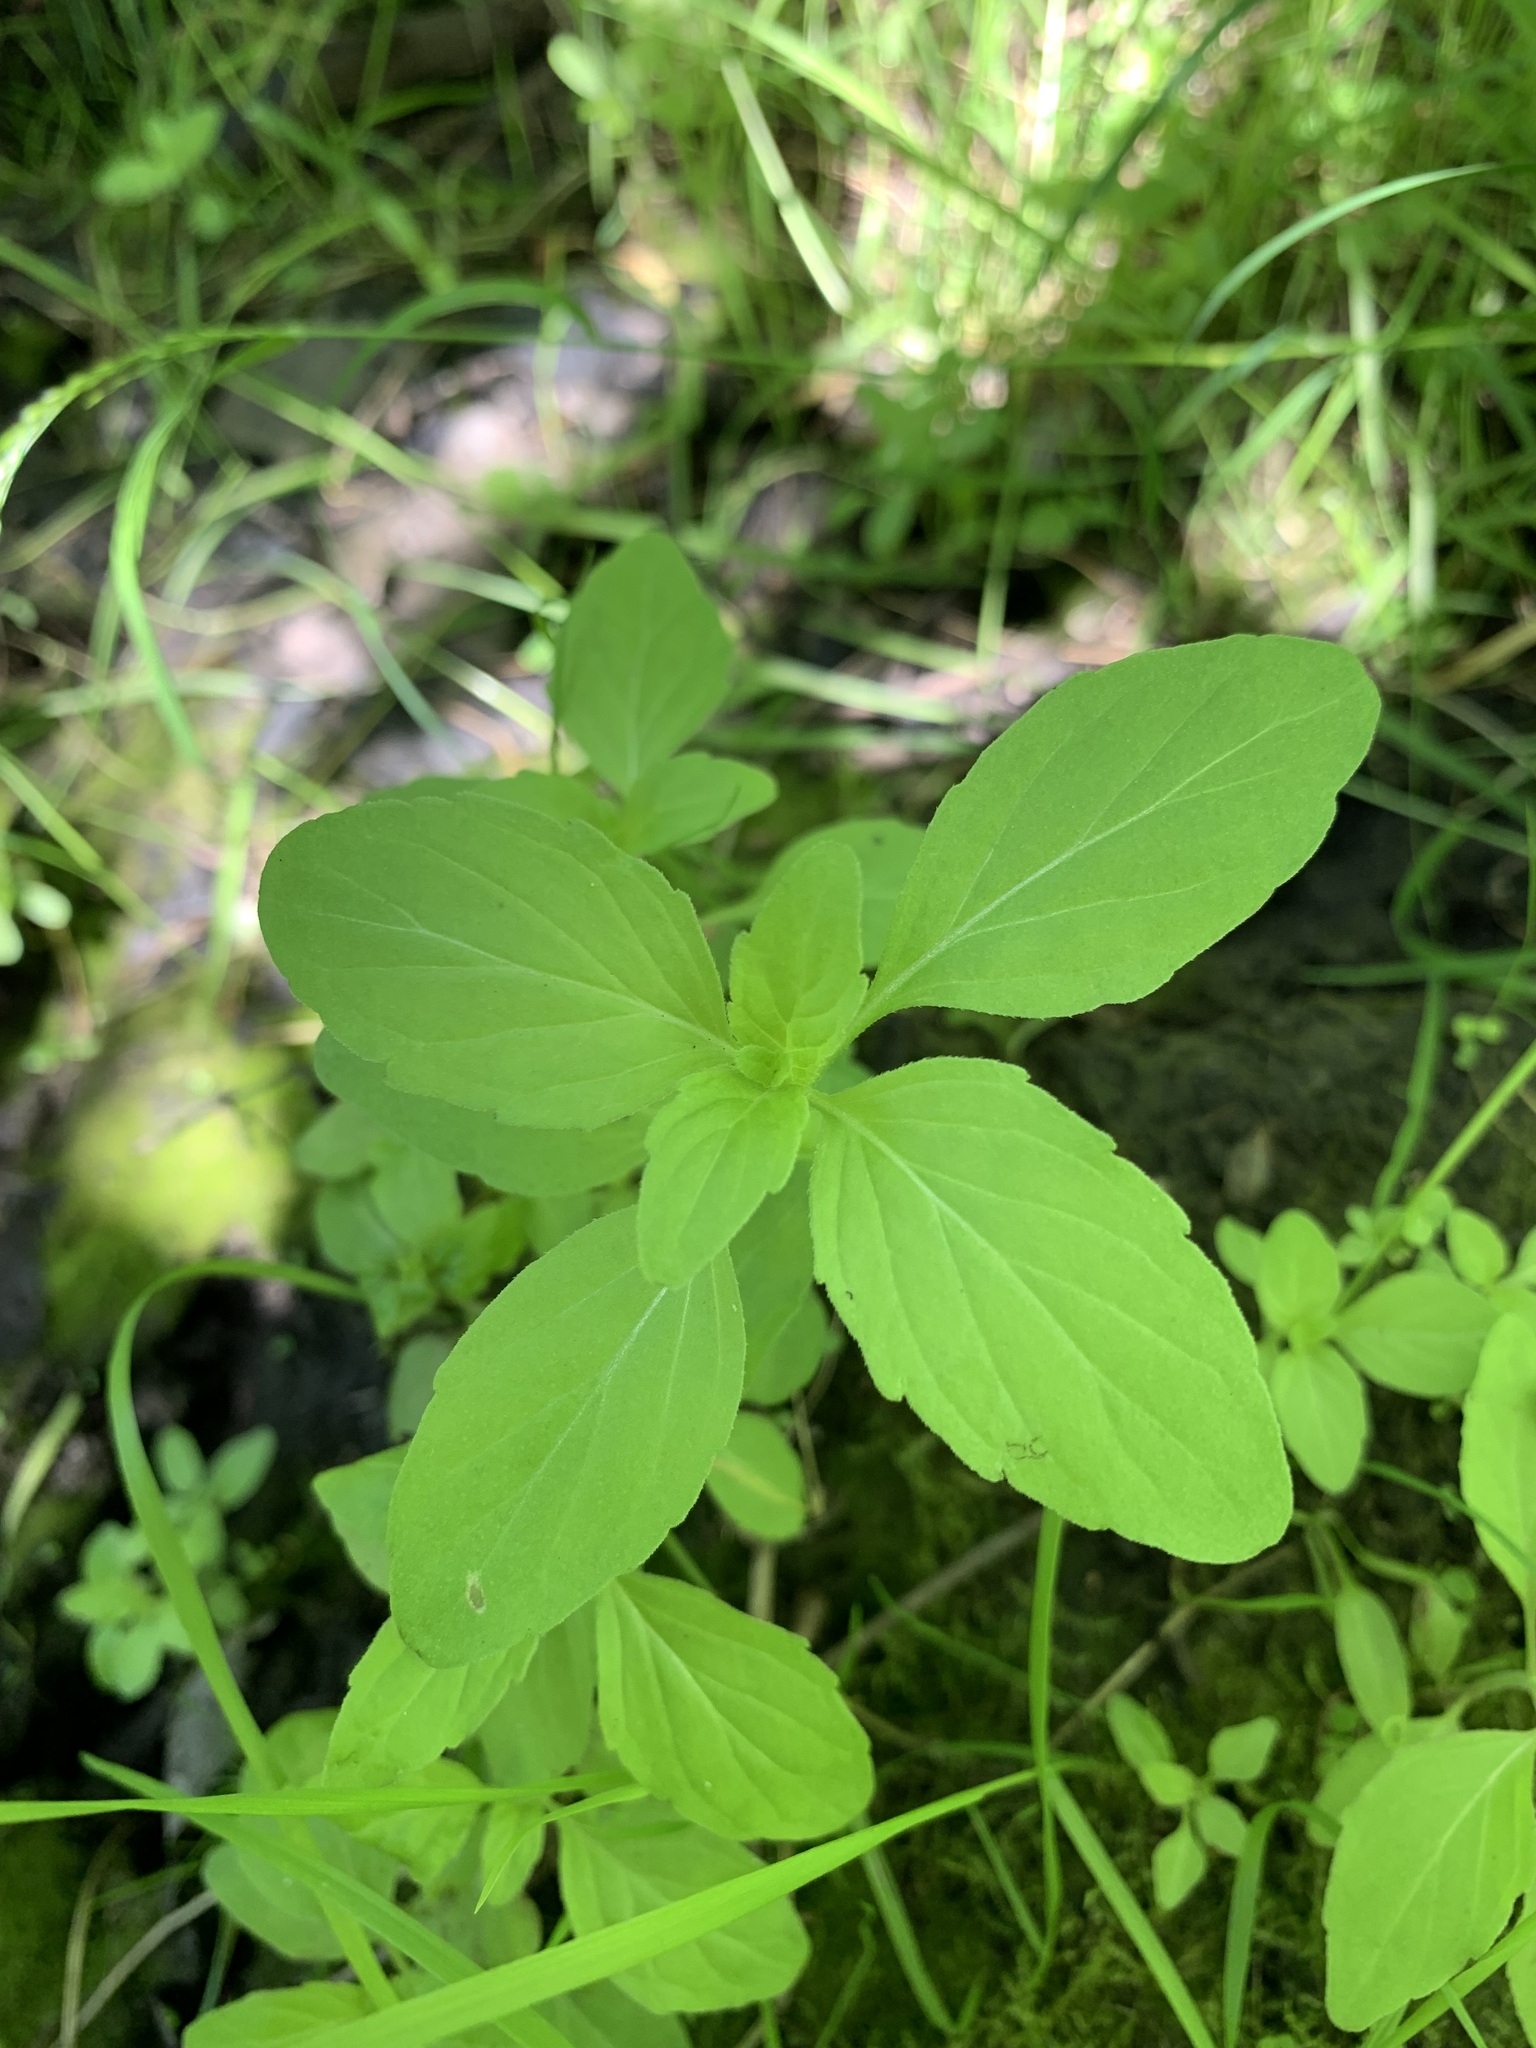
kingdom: Plantae
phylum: Tracheophyta
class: Magnoliopsida
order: Lamiales
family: Lamiaceae
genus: Mentha
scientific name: Mentha arvensis
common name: Corn mint
